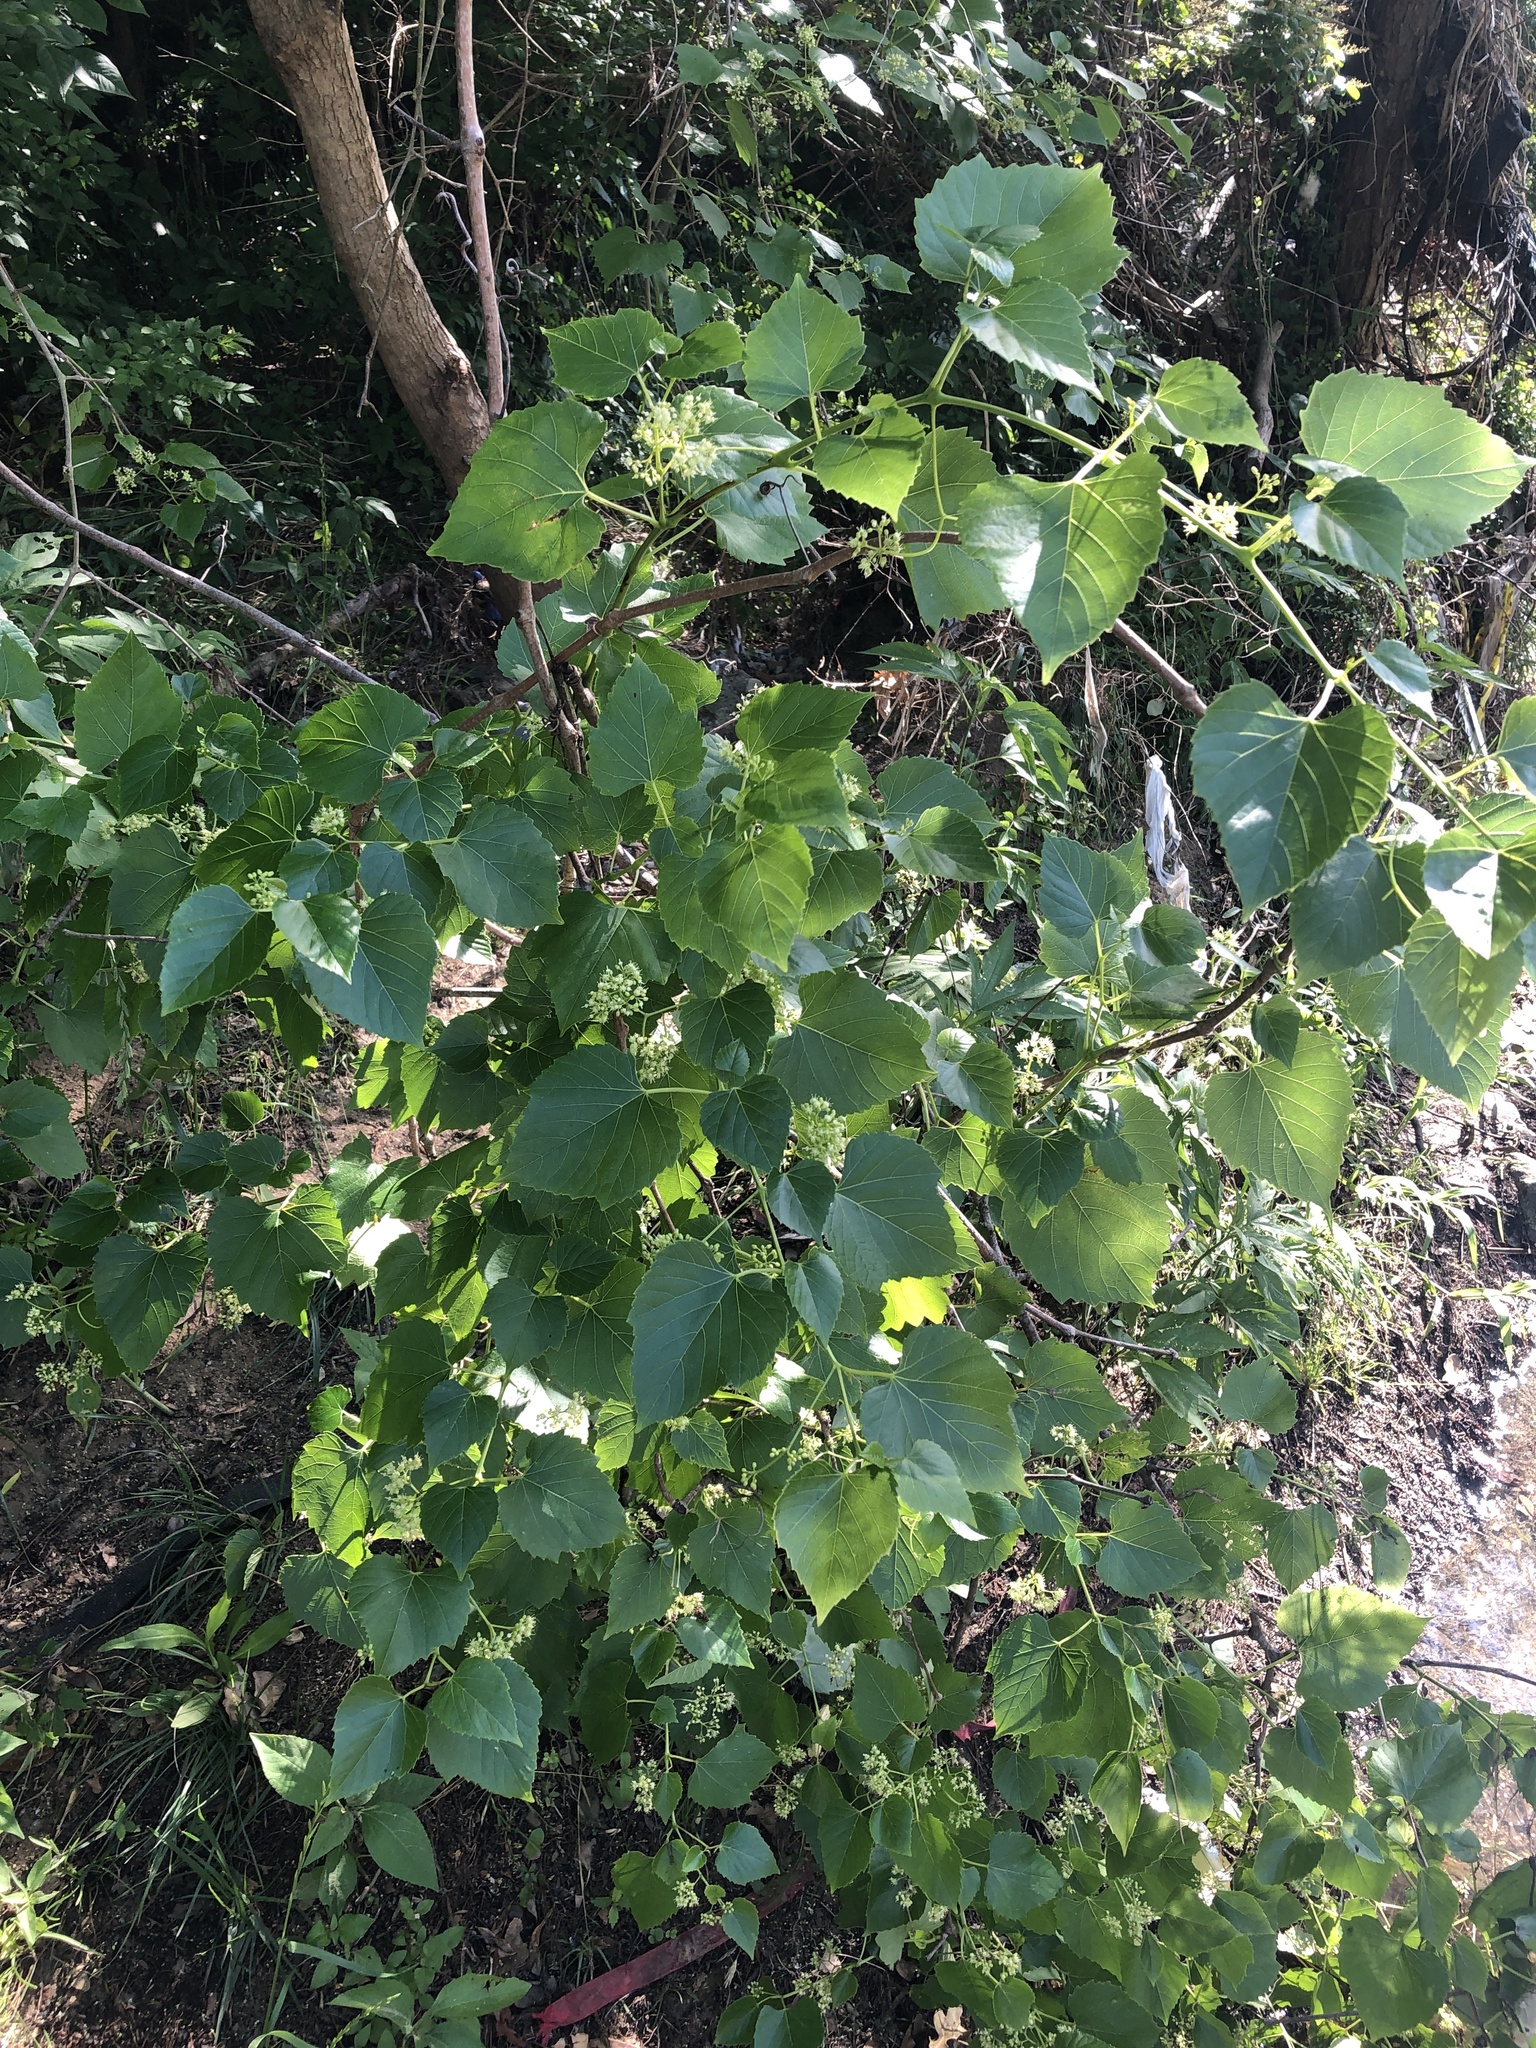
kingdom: Plantae
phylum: Tracheophyta
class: Magnoliopsida
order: Vitales
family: Vitaceae
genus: Ampelopsis
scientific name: Ampelopsis cordata
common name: Heart-leaf ampelopsis
